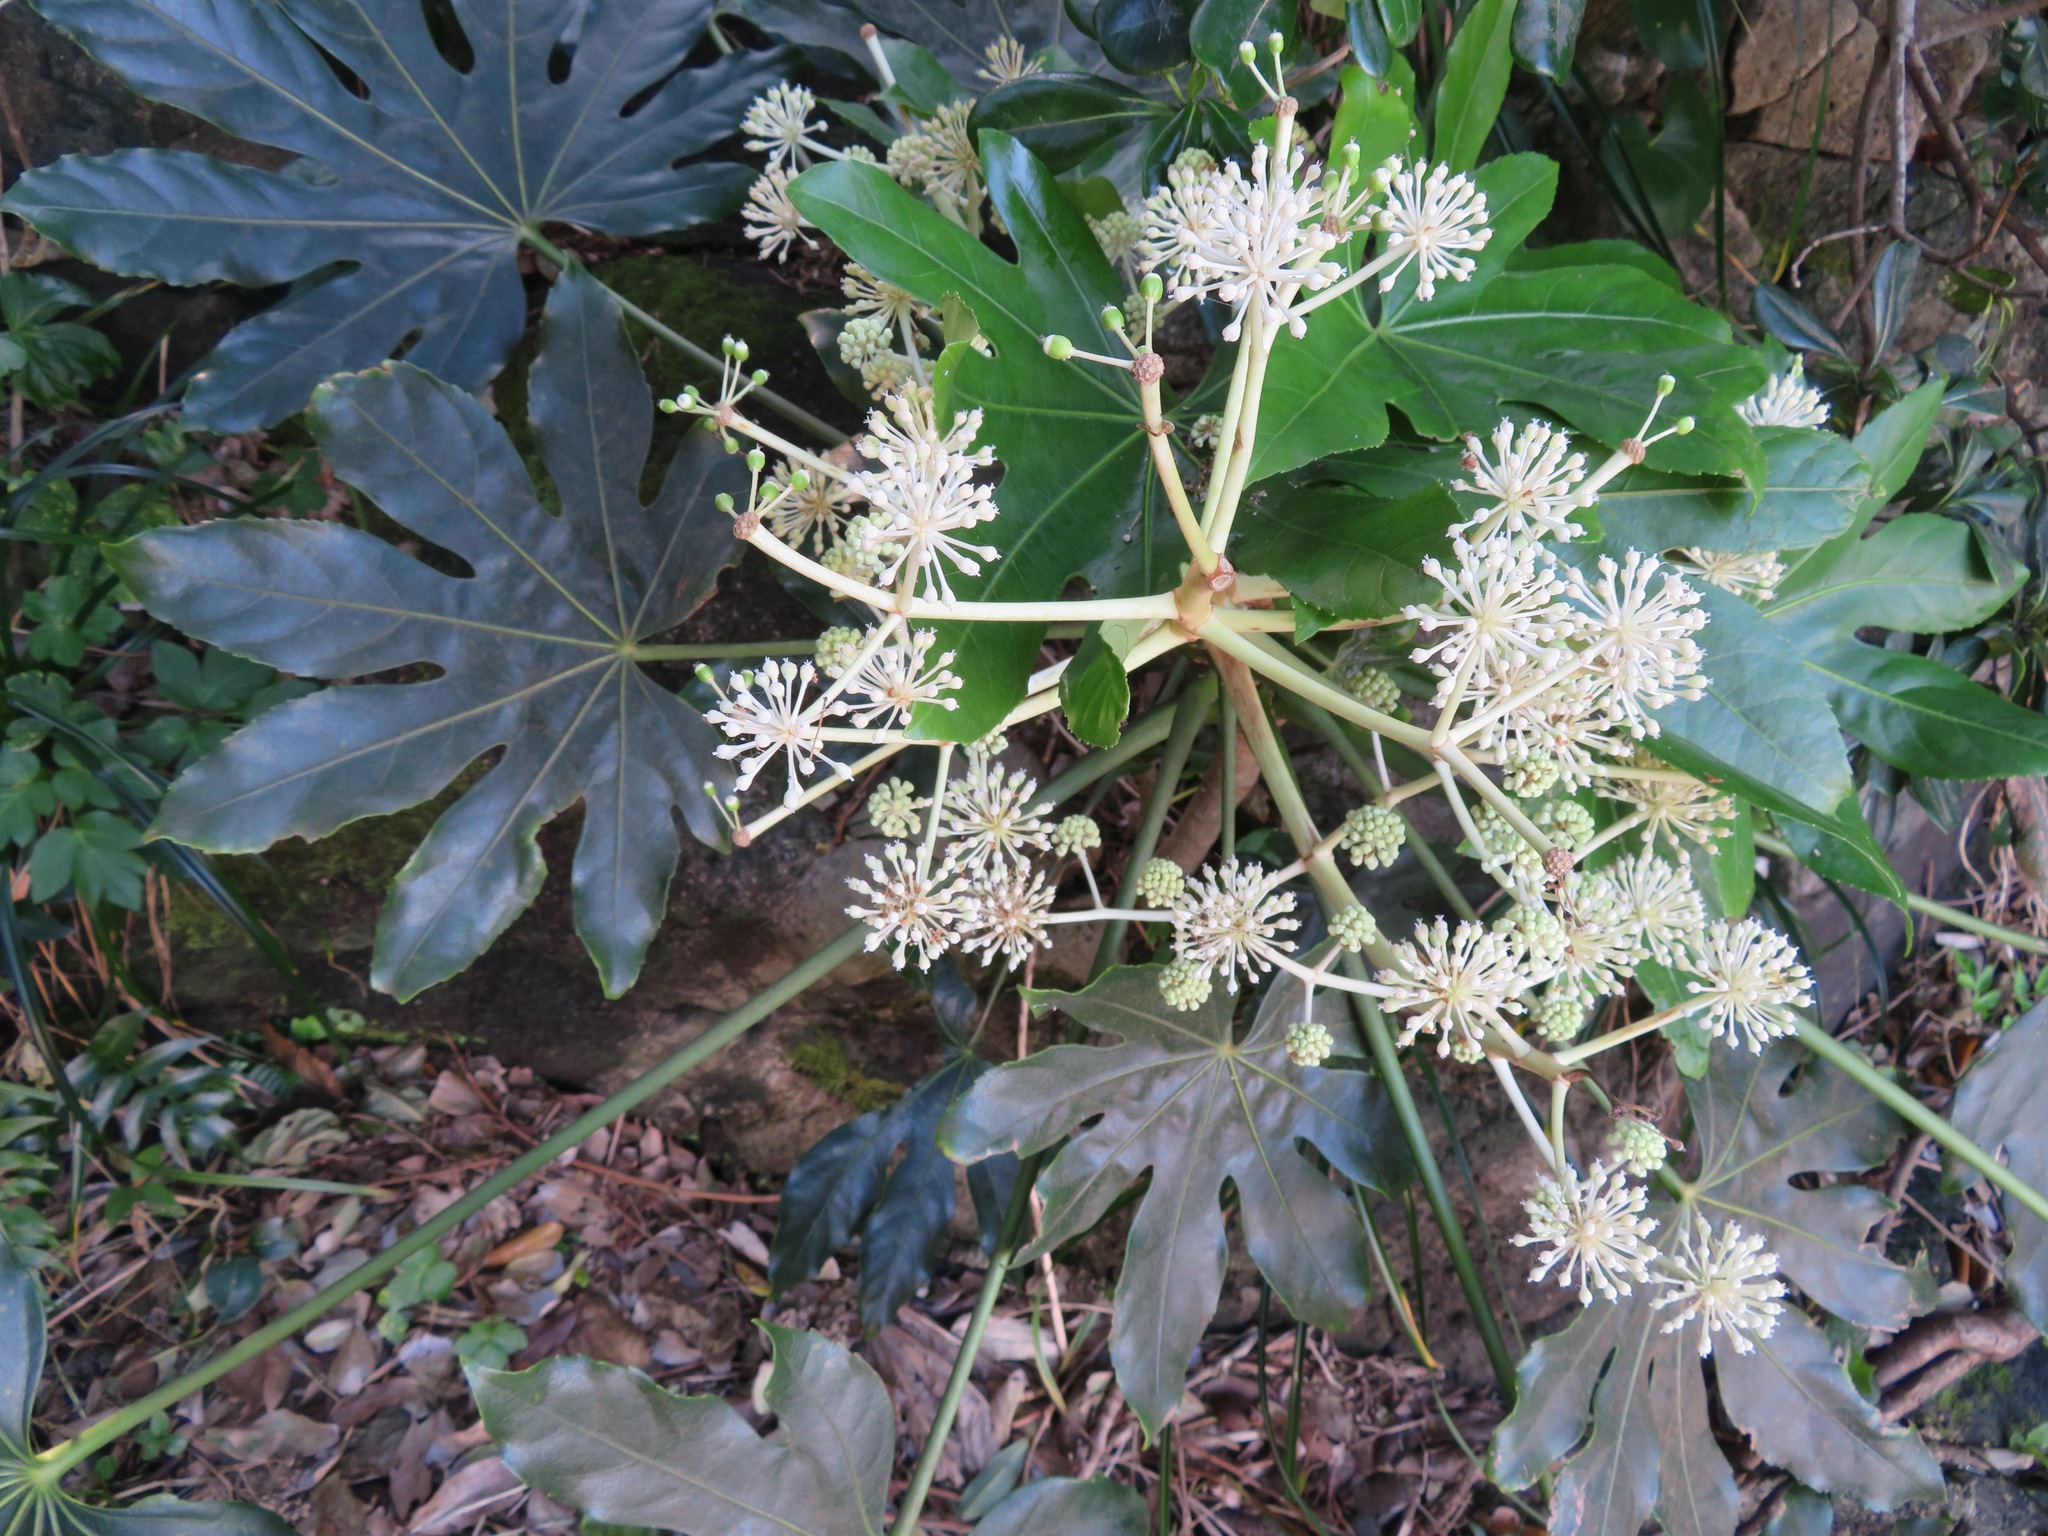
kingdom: Plantae
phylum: Tracheophyta
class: Magnoliopsida
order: Apiales
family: Araliaceae
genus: Fatsia
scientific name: Fatsia japonica
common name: Fatsia
